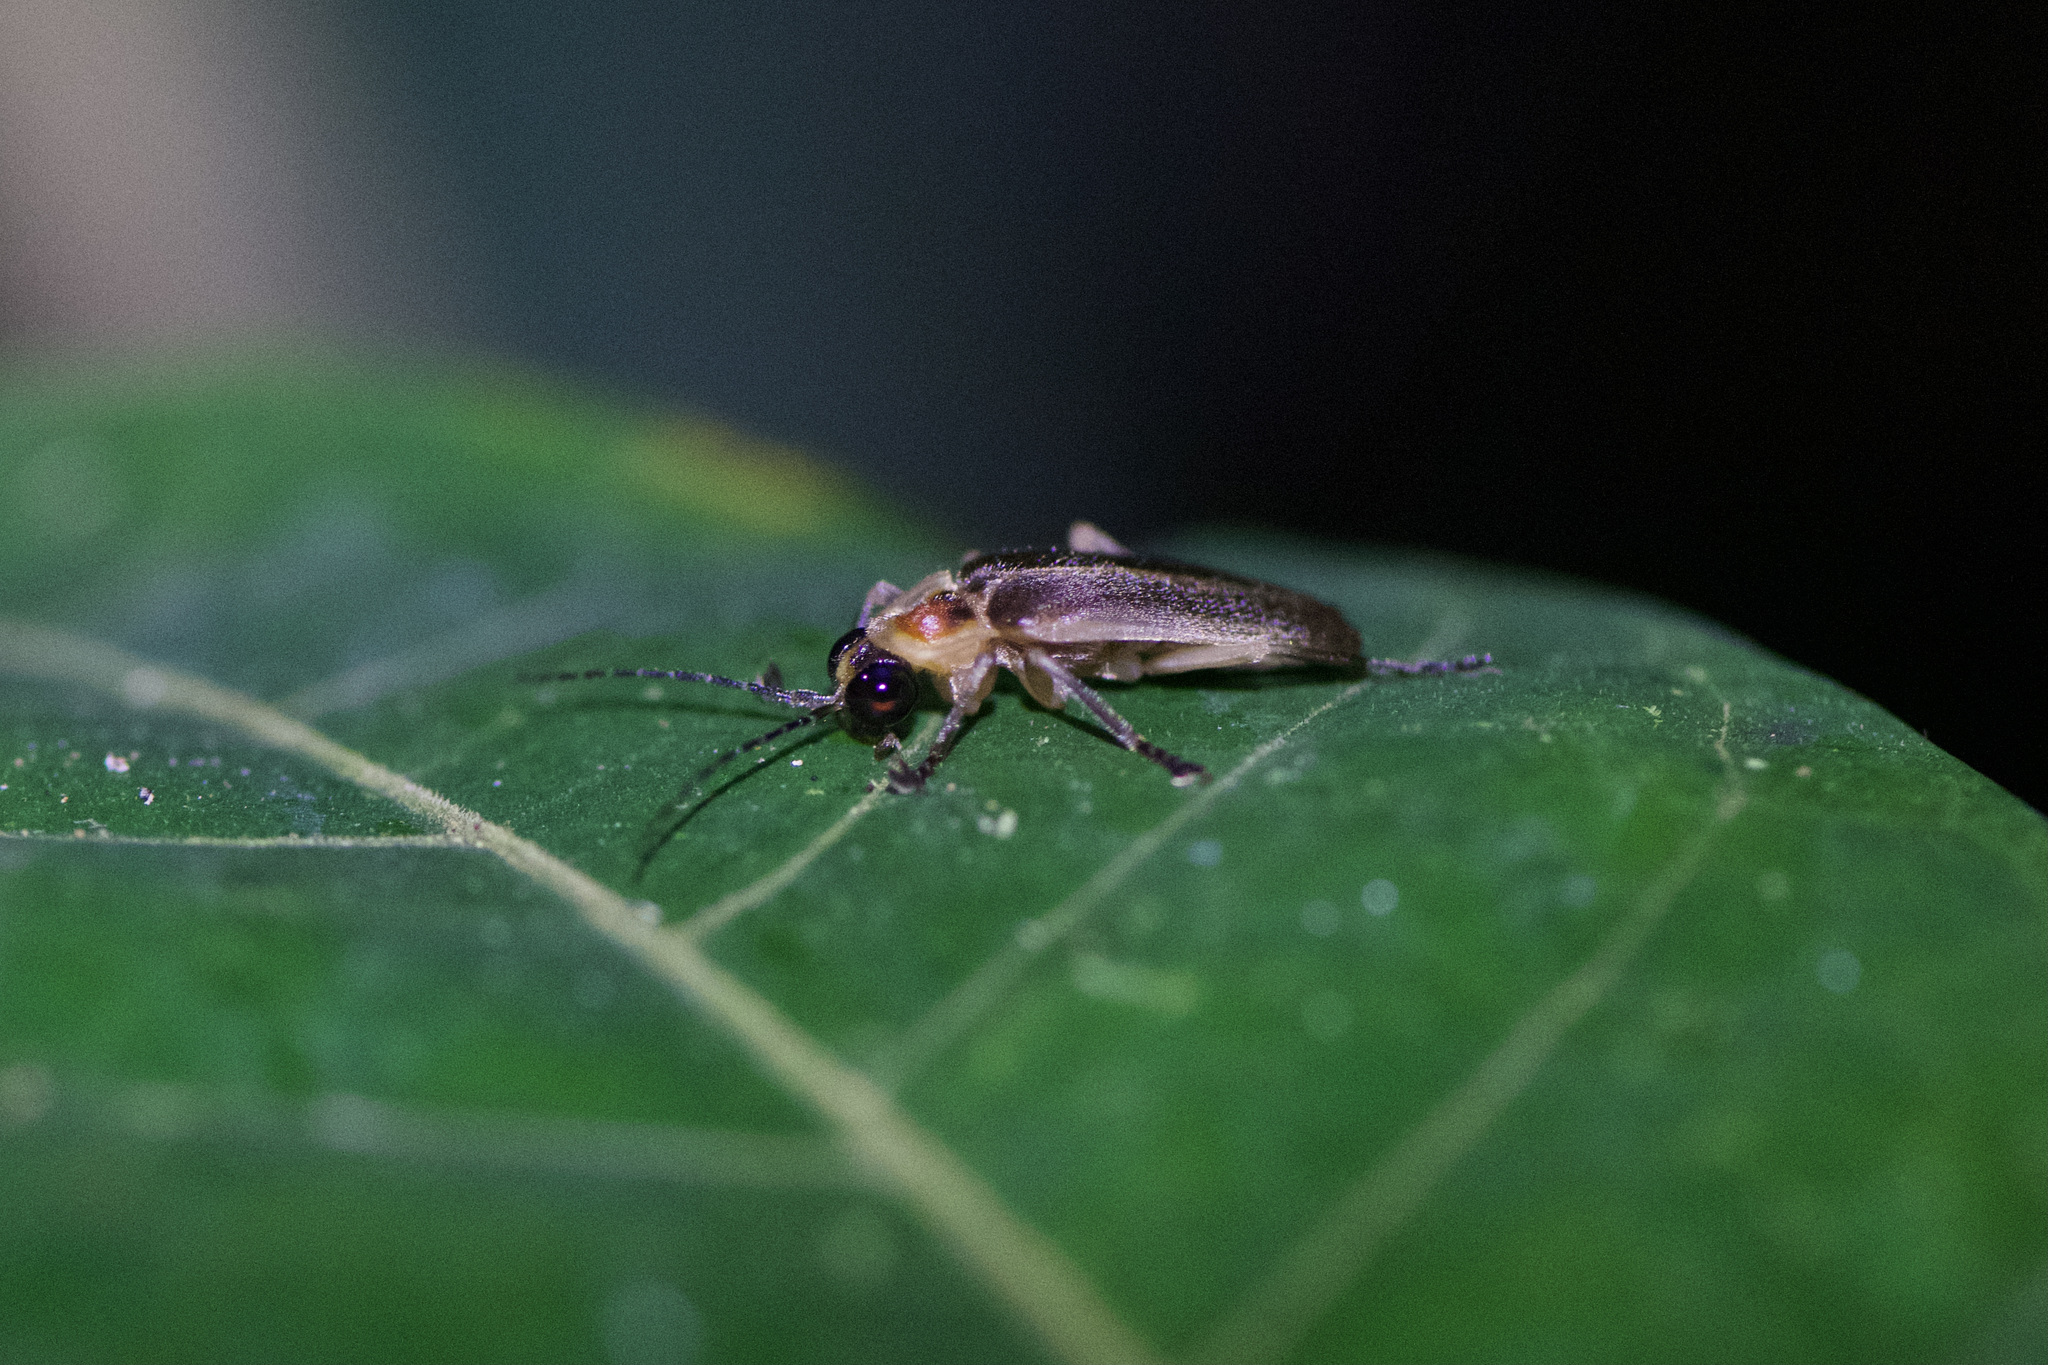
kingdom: Animalia
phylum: Arthropoda
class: Insecta
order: Coleoptera
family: Lampyridae
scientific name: Lampyridae
